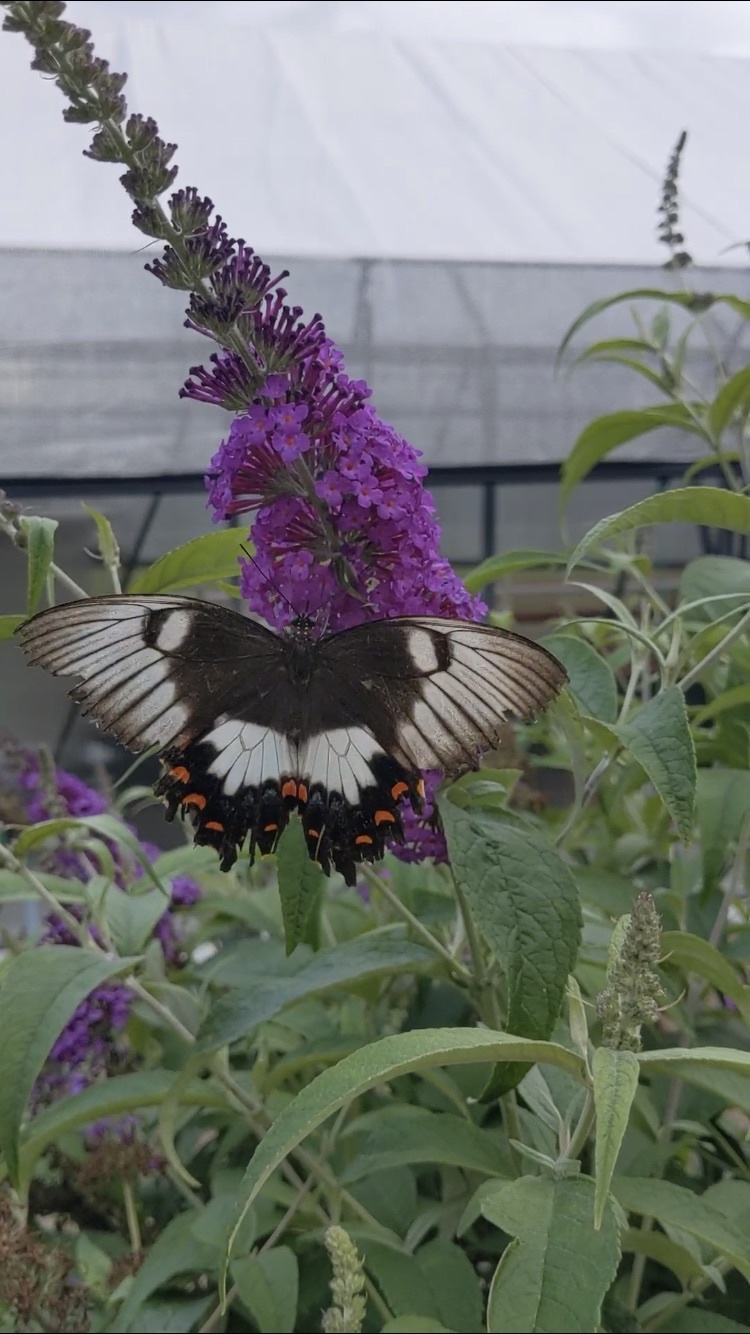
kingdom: Animalia
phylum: Arthropoda
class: Insecta
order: Lepidoptera
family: Papilionidae
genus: Papilio
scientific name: Papilio aegeus
